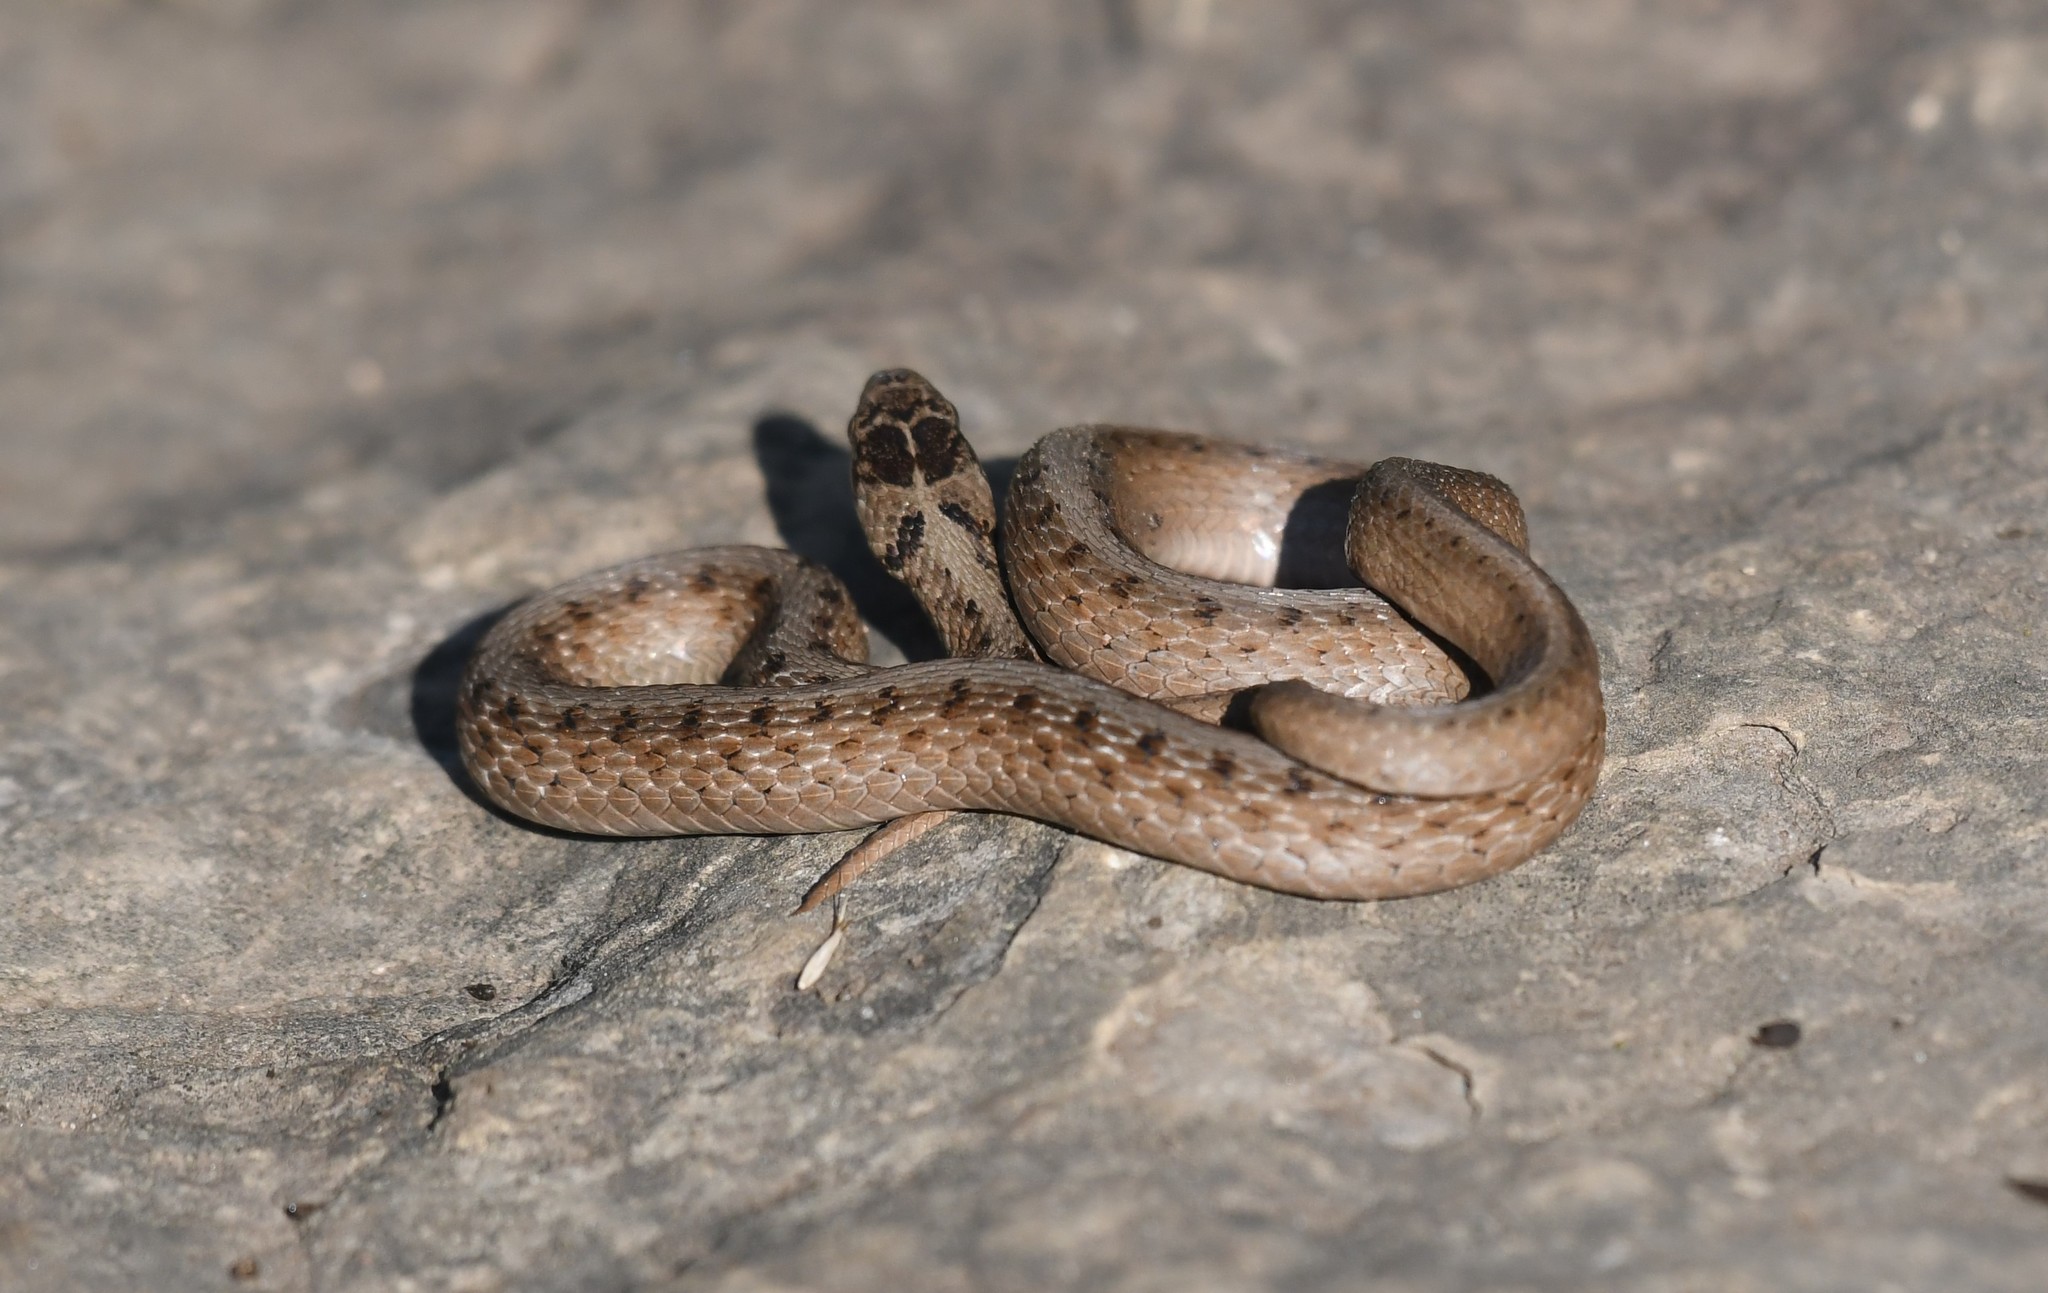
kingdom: Animalia
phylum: Chordata
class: Squamata
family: Colubridae
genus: Storeria
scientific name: Storeria dekayi
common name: (dekay’s) brown snake
